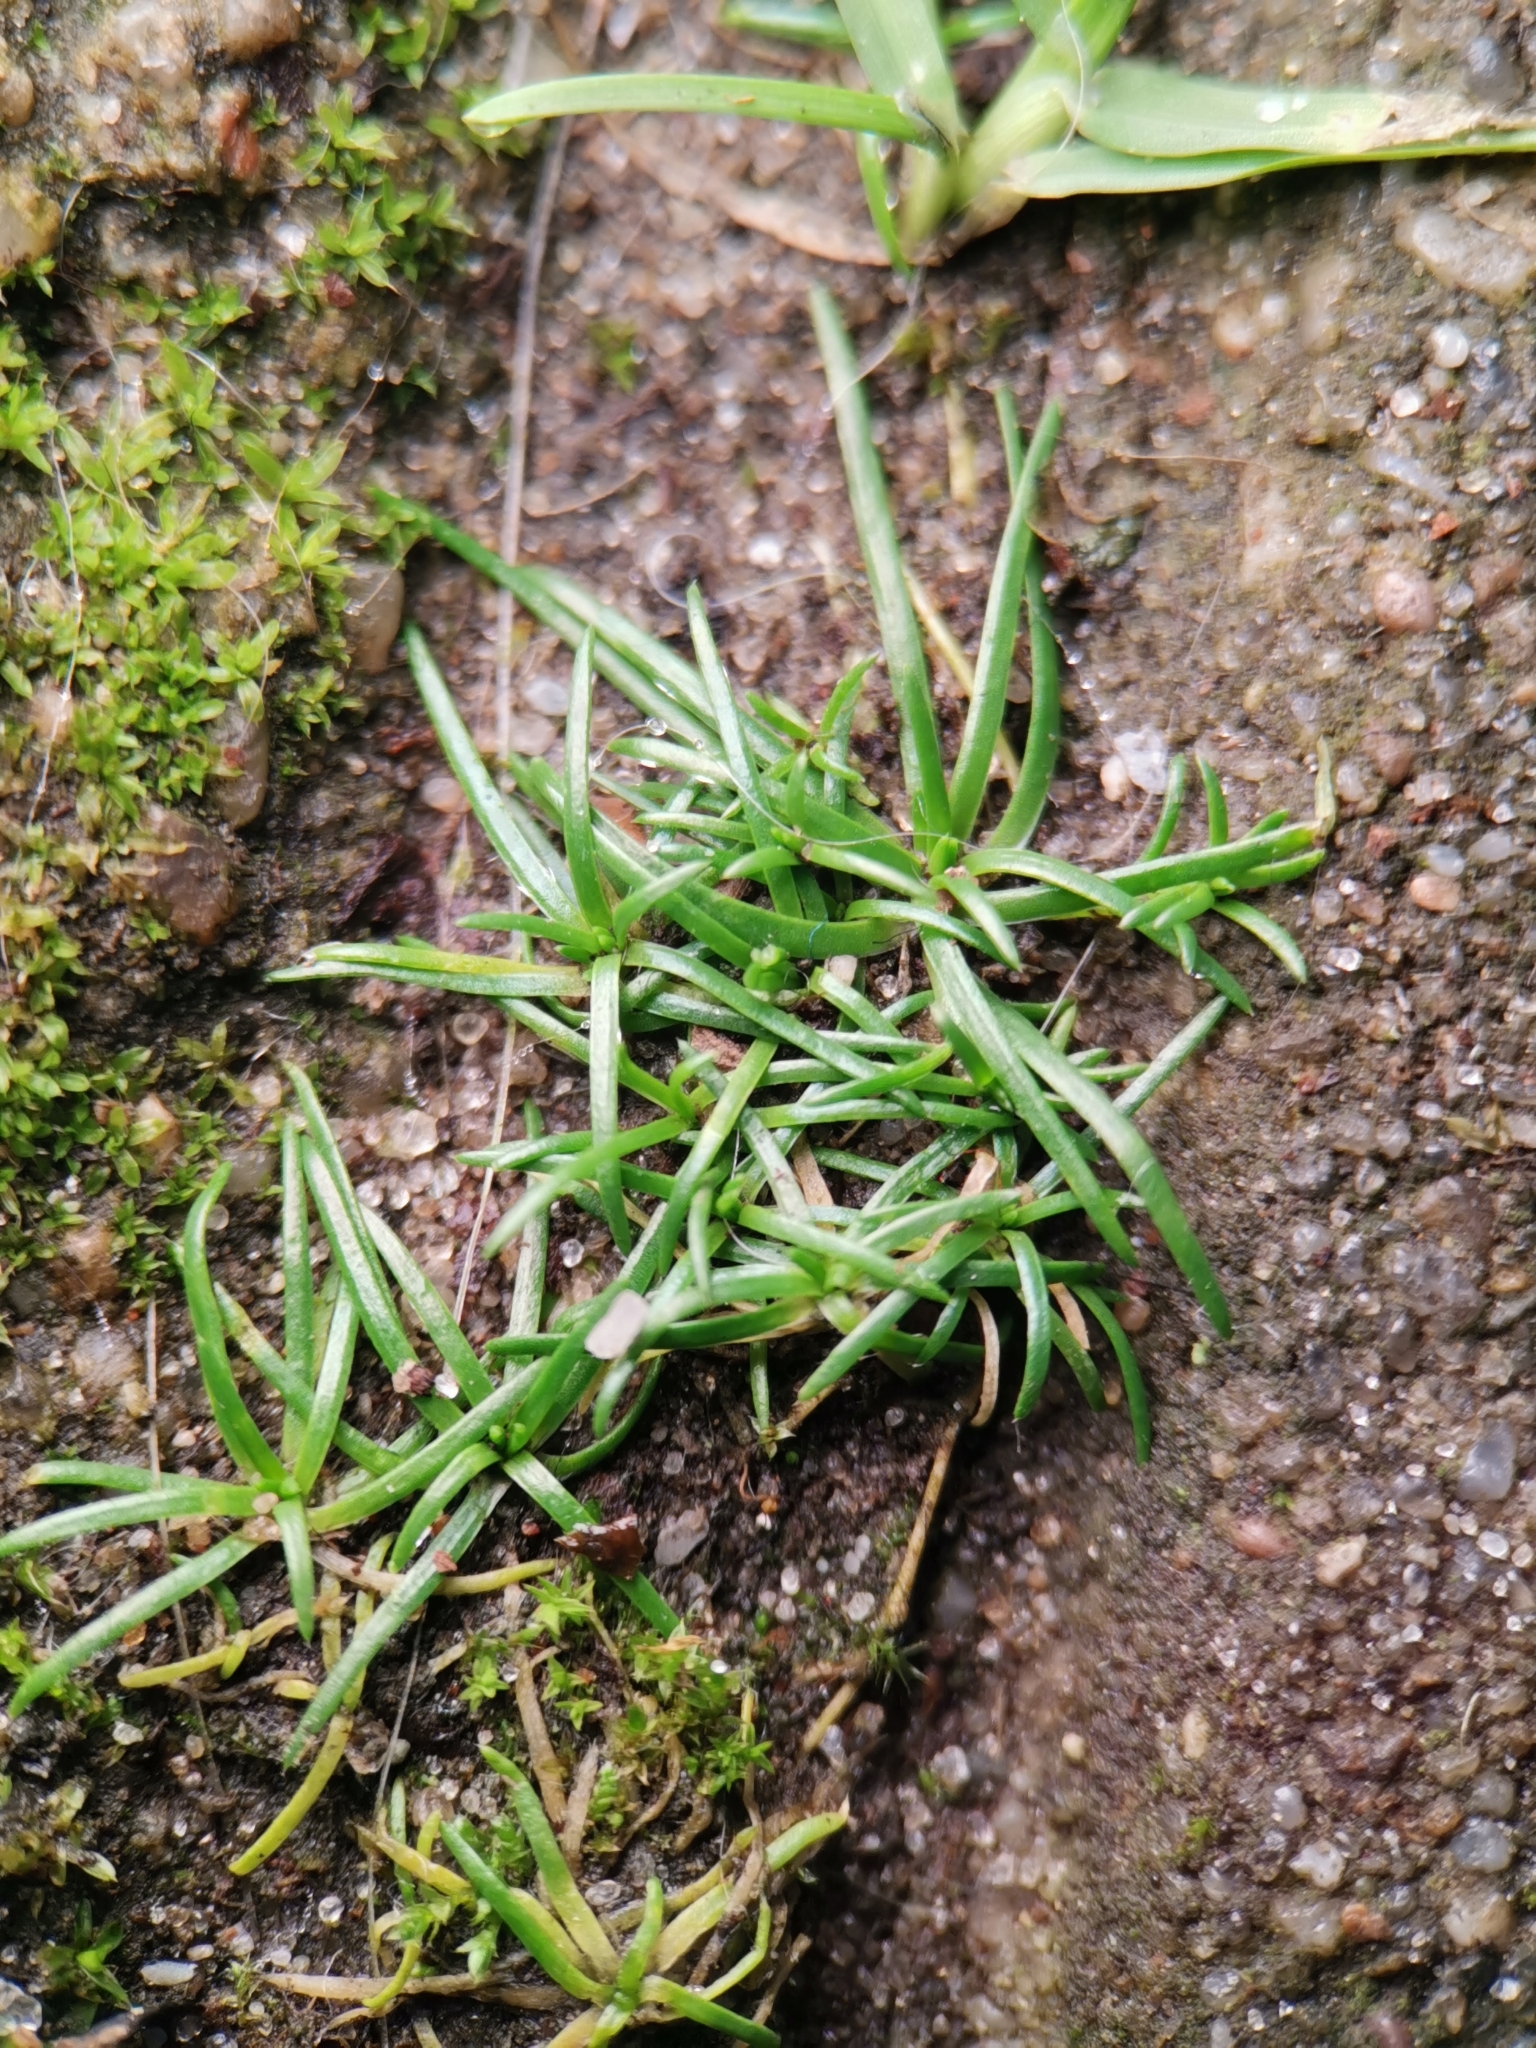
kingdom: Plantae
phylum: Tracheophyta
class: Magnoliopsida
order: Caryophyllales
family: Caryophyllaceae
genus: Sagina
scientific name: Sagina procumbens
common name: Procumbent pearlwort
